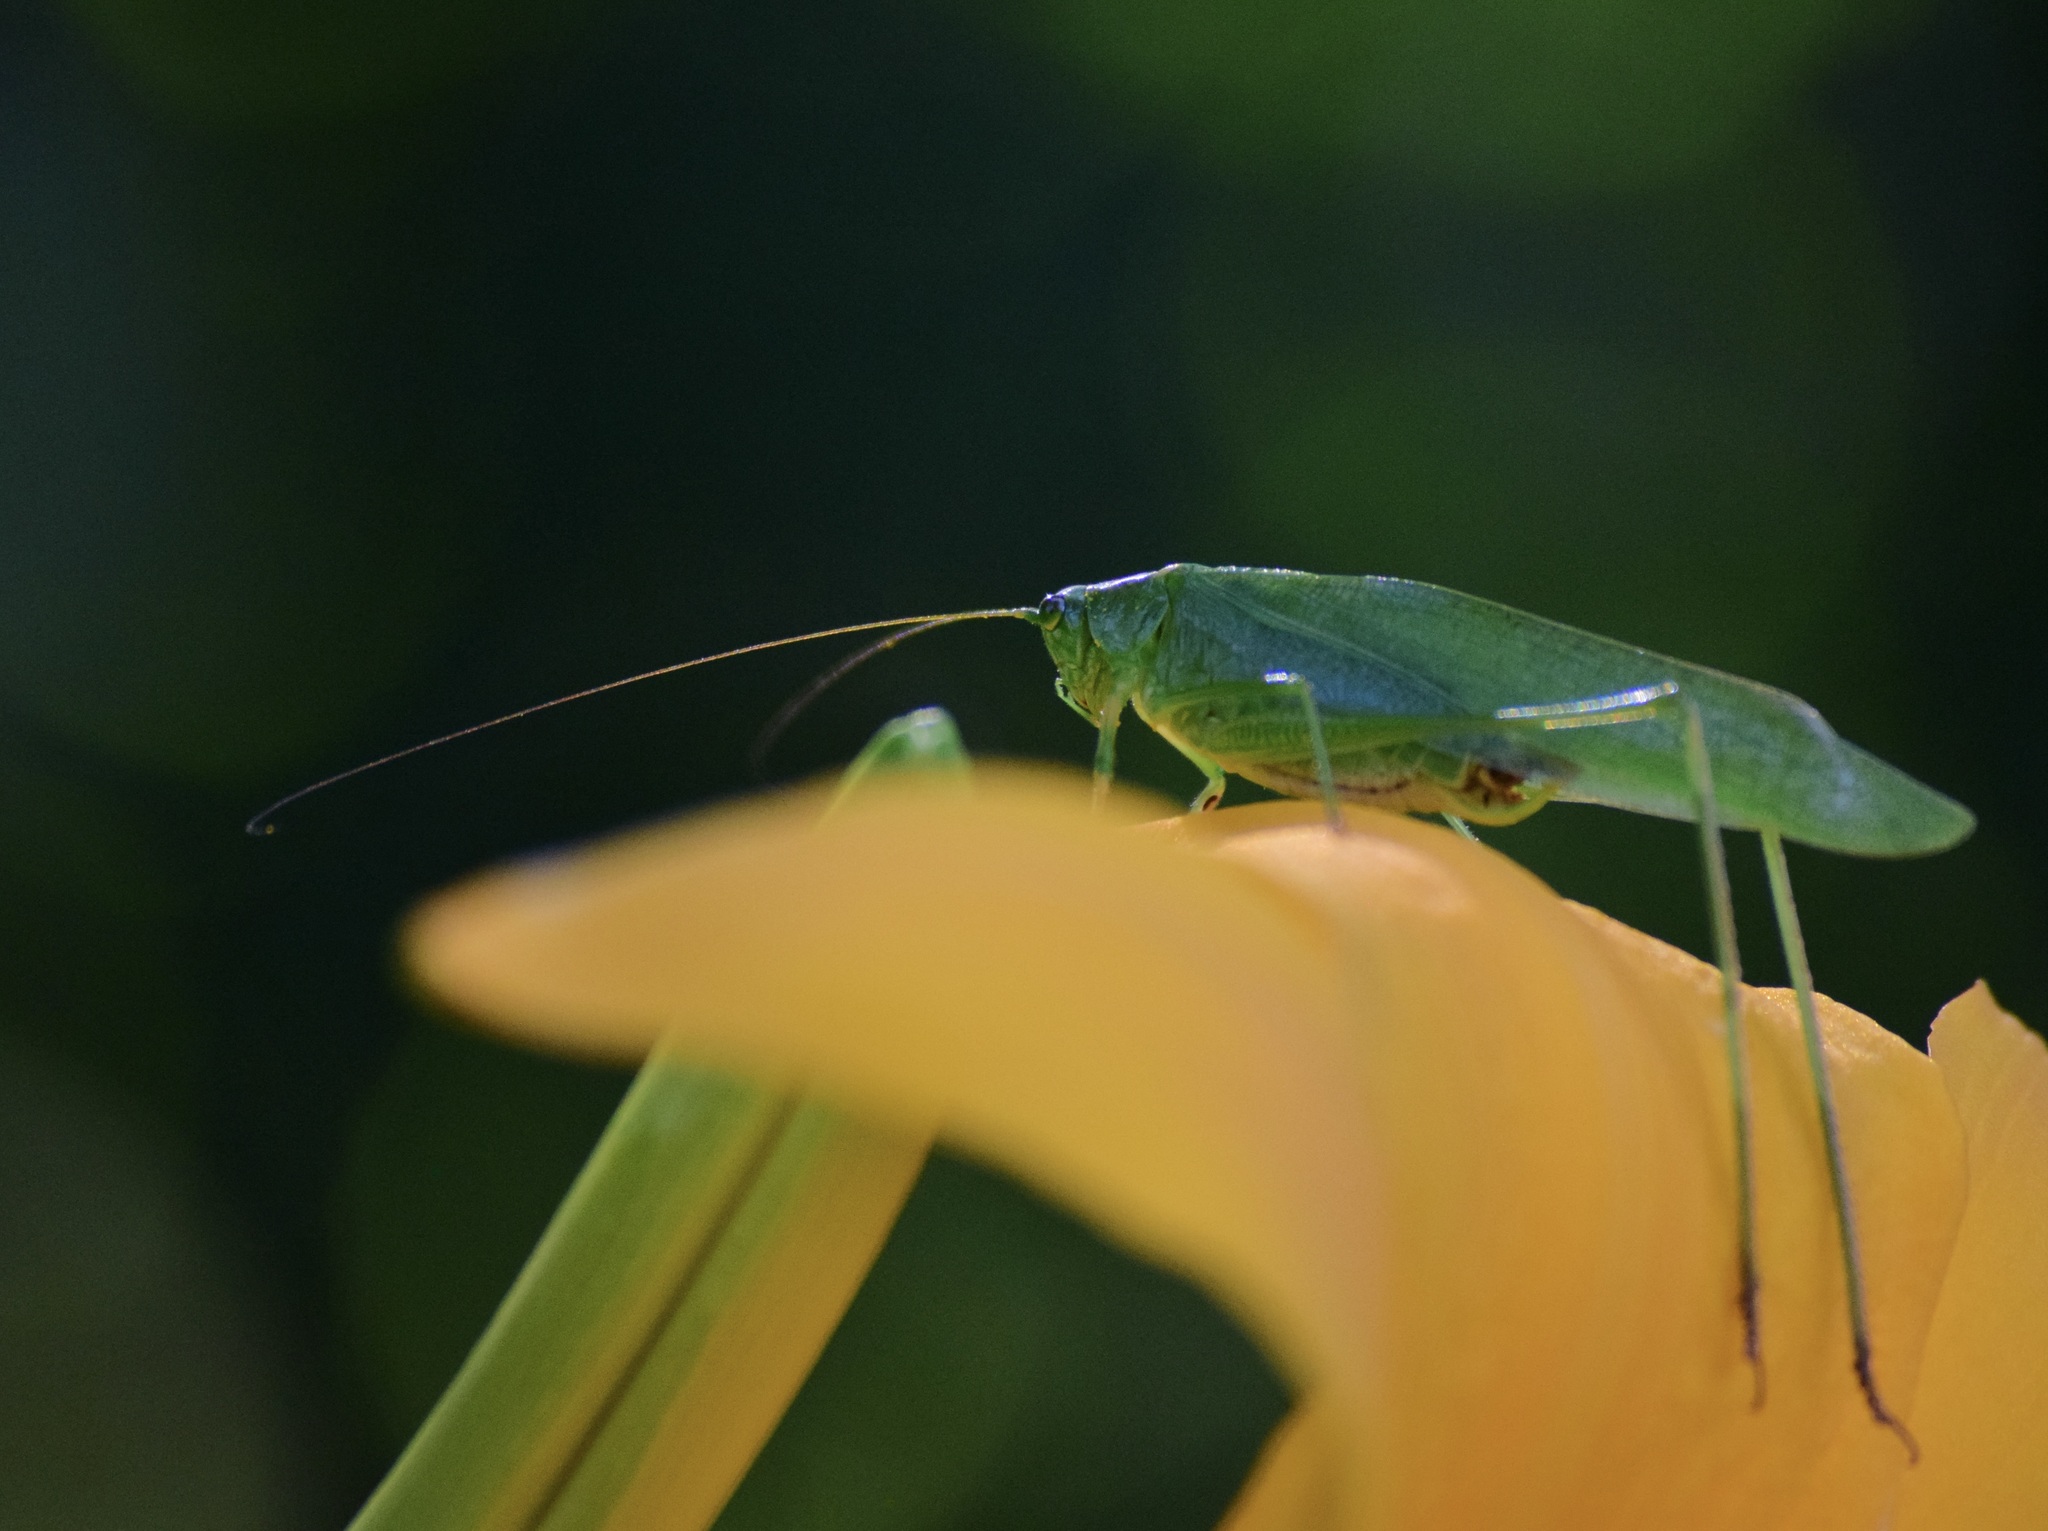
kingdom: Animalia
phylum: Arthropoda
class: Insecta
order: Orthoptera
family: Tettigoniidae
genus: Scudderia
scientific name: Scudderia furcata
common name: Fork-tailed bush katydid
